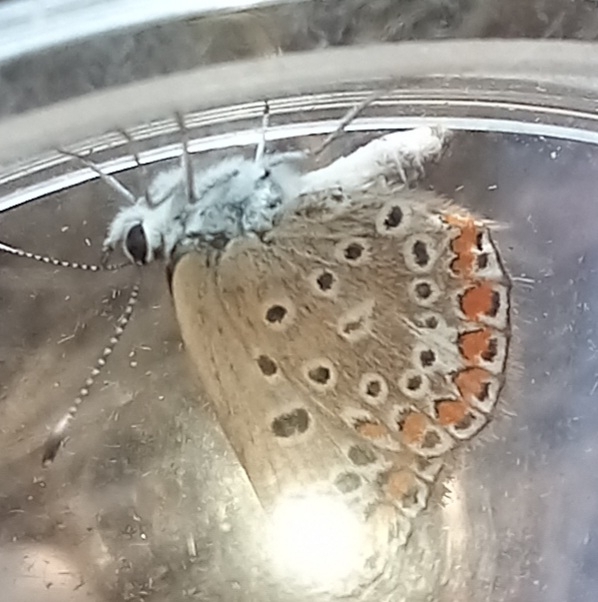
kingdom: Animalia
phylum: Arthropoda
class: Insecta
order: Lepidoptera
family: Lycaenidae
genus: Polyommatus
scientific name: Polyommatus icarus
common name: Common blue
